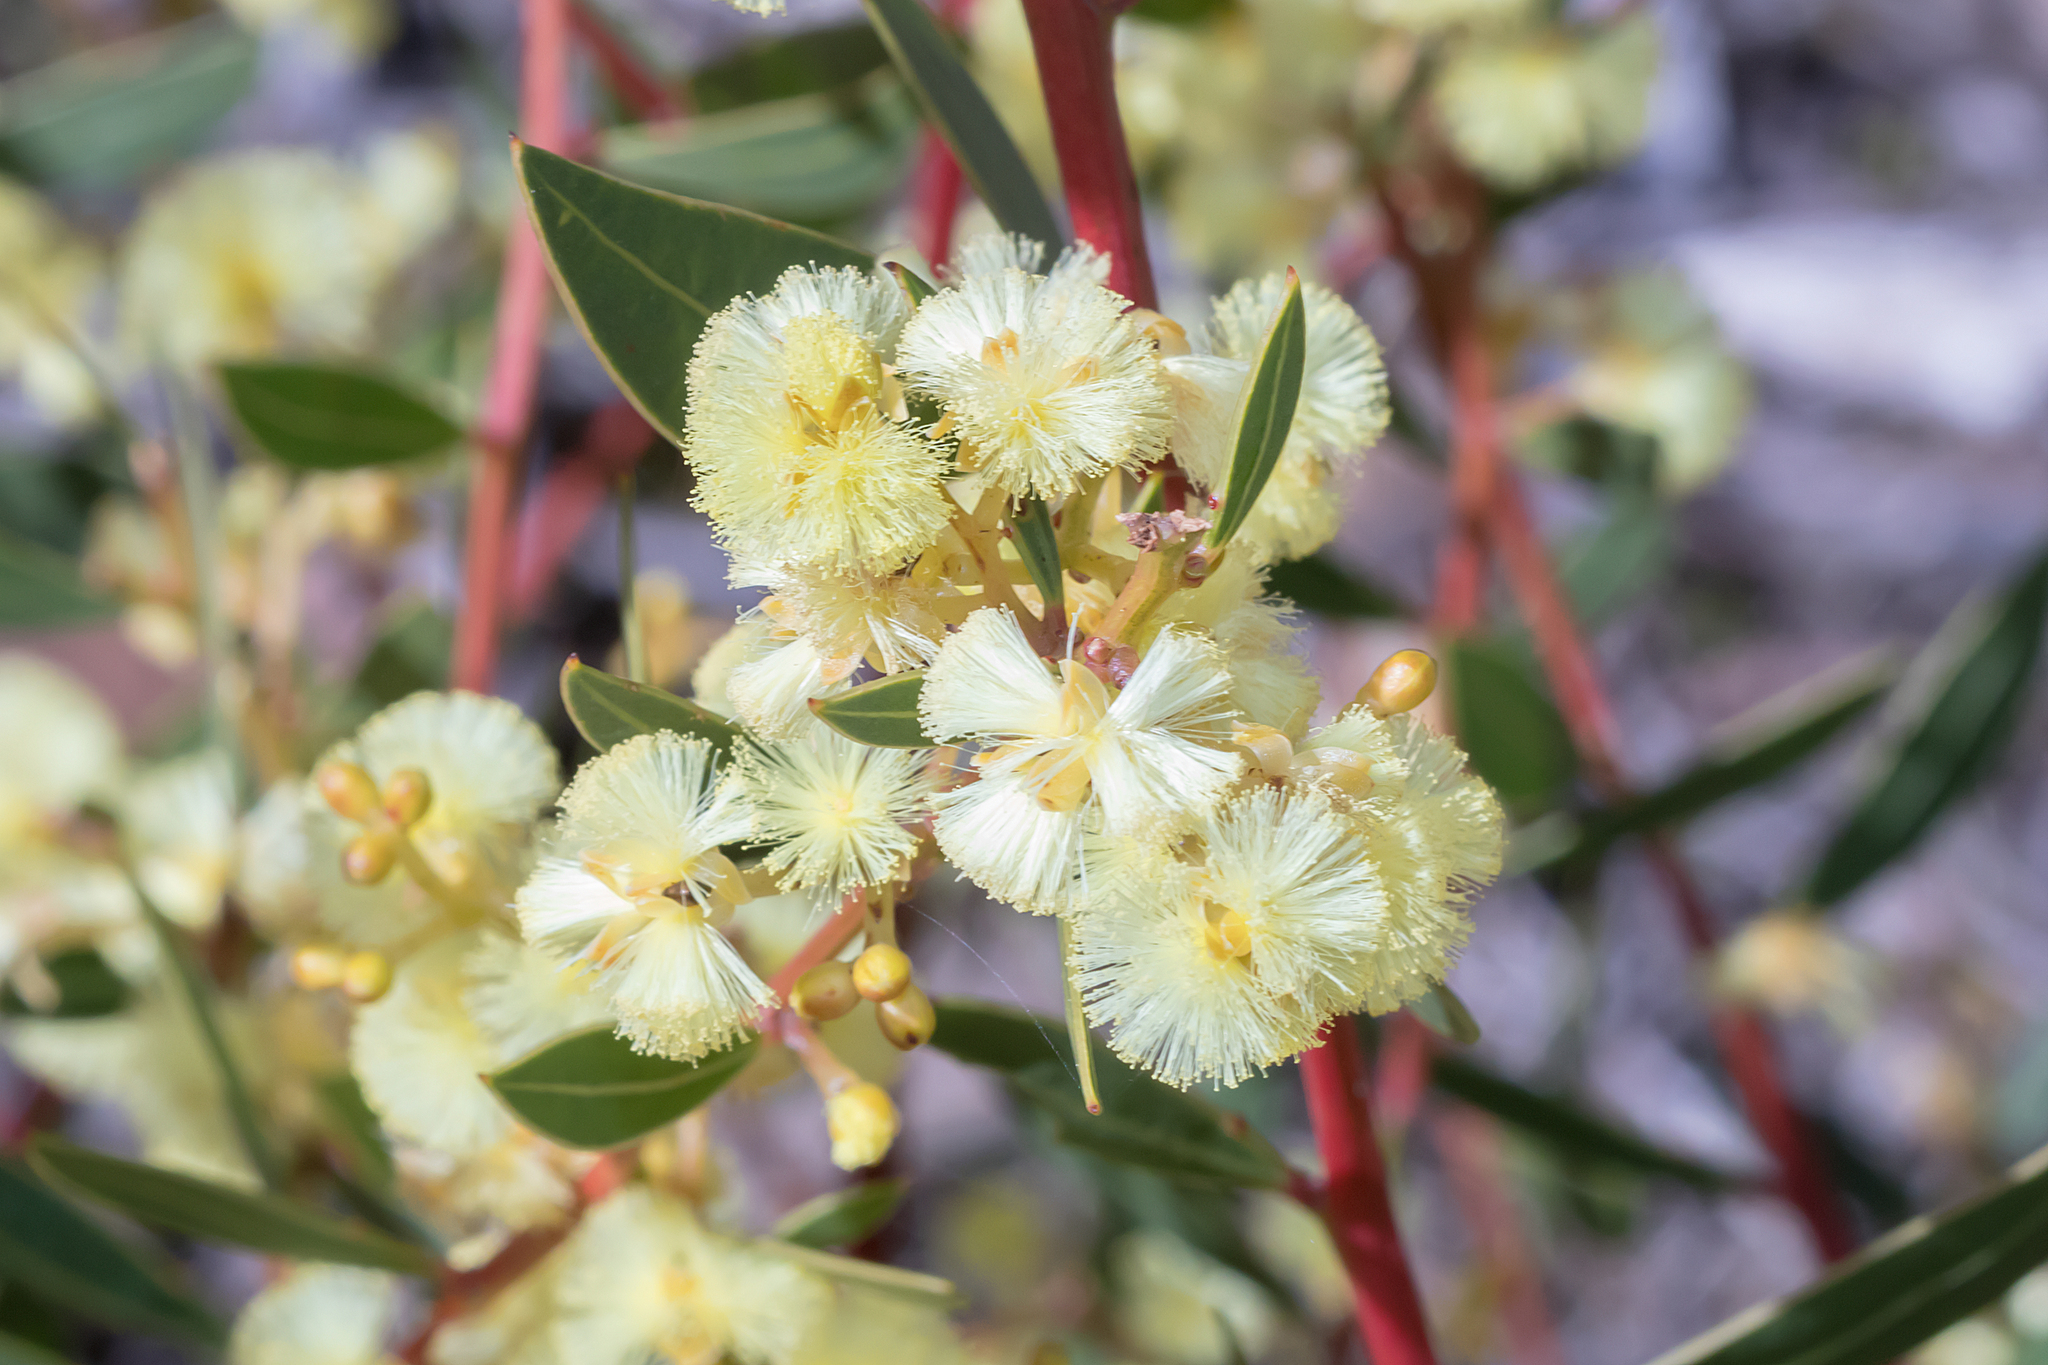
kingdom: Plantae
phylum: Tracheophyta
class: Magnoliopsida
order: Fabales
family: Fabaceae
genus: Acacia
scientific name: Acacia myrtifolia
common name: Myrtle wattle
